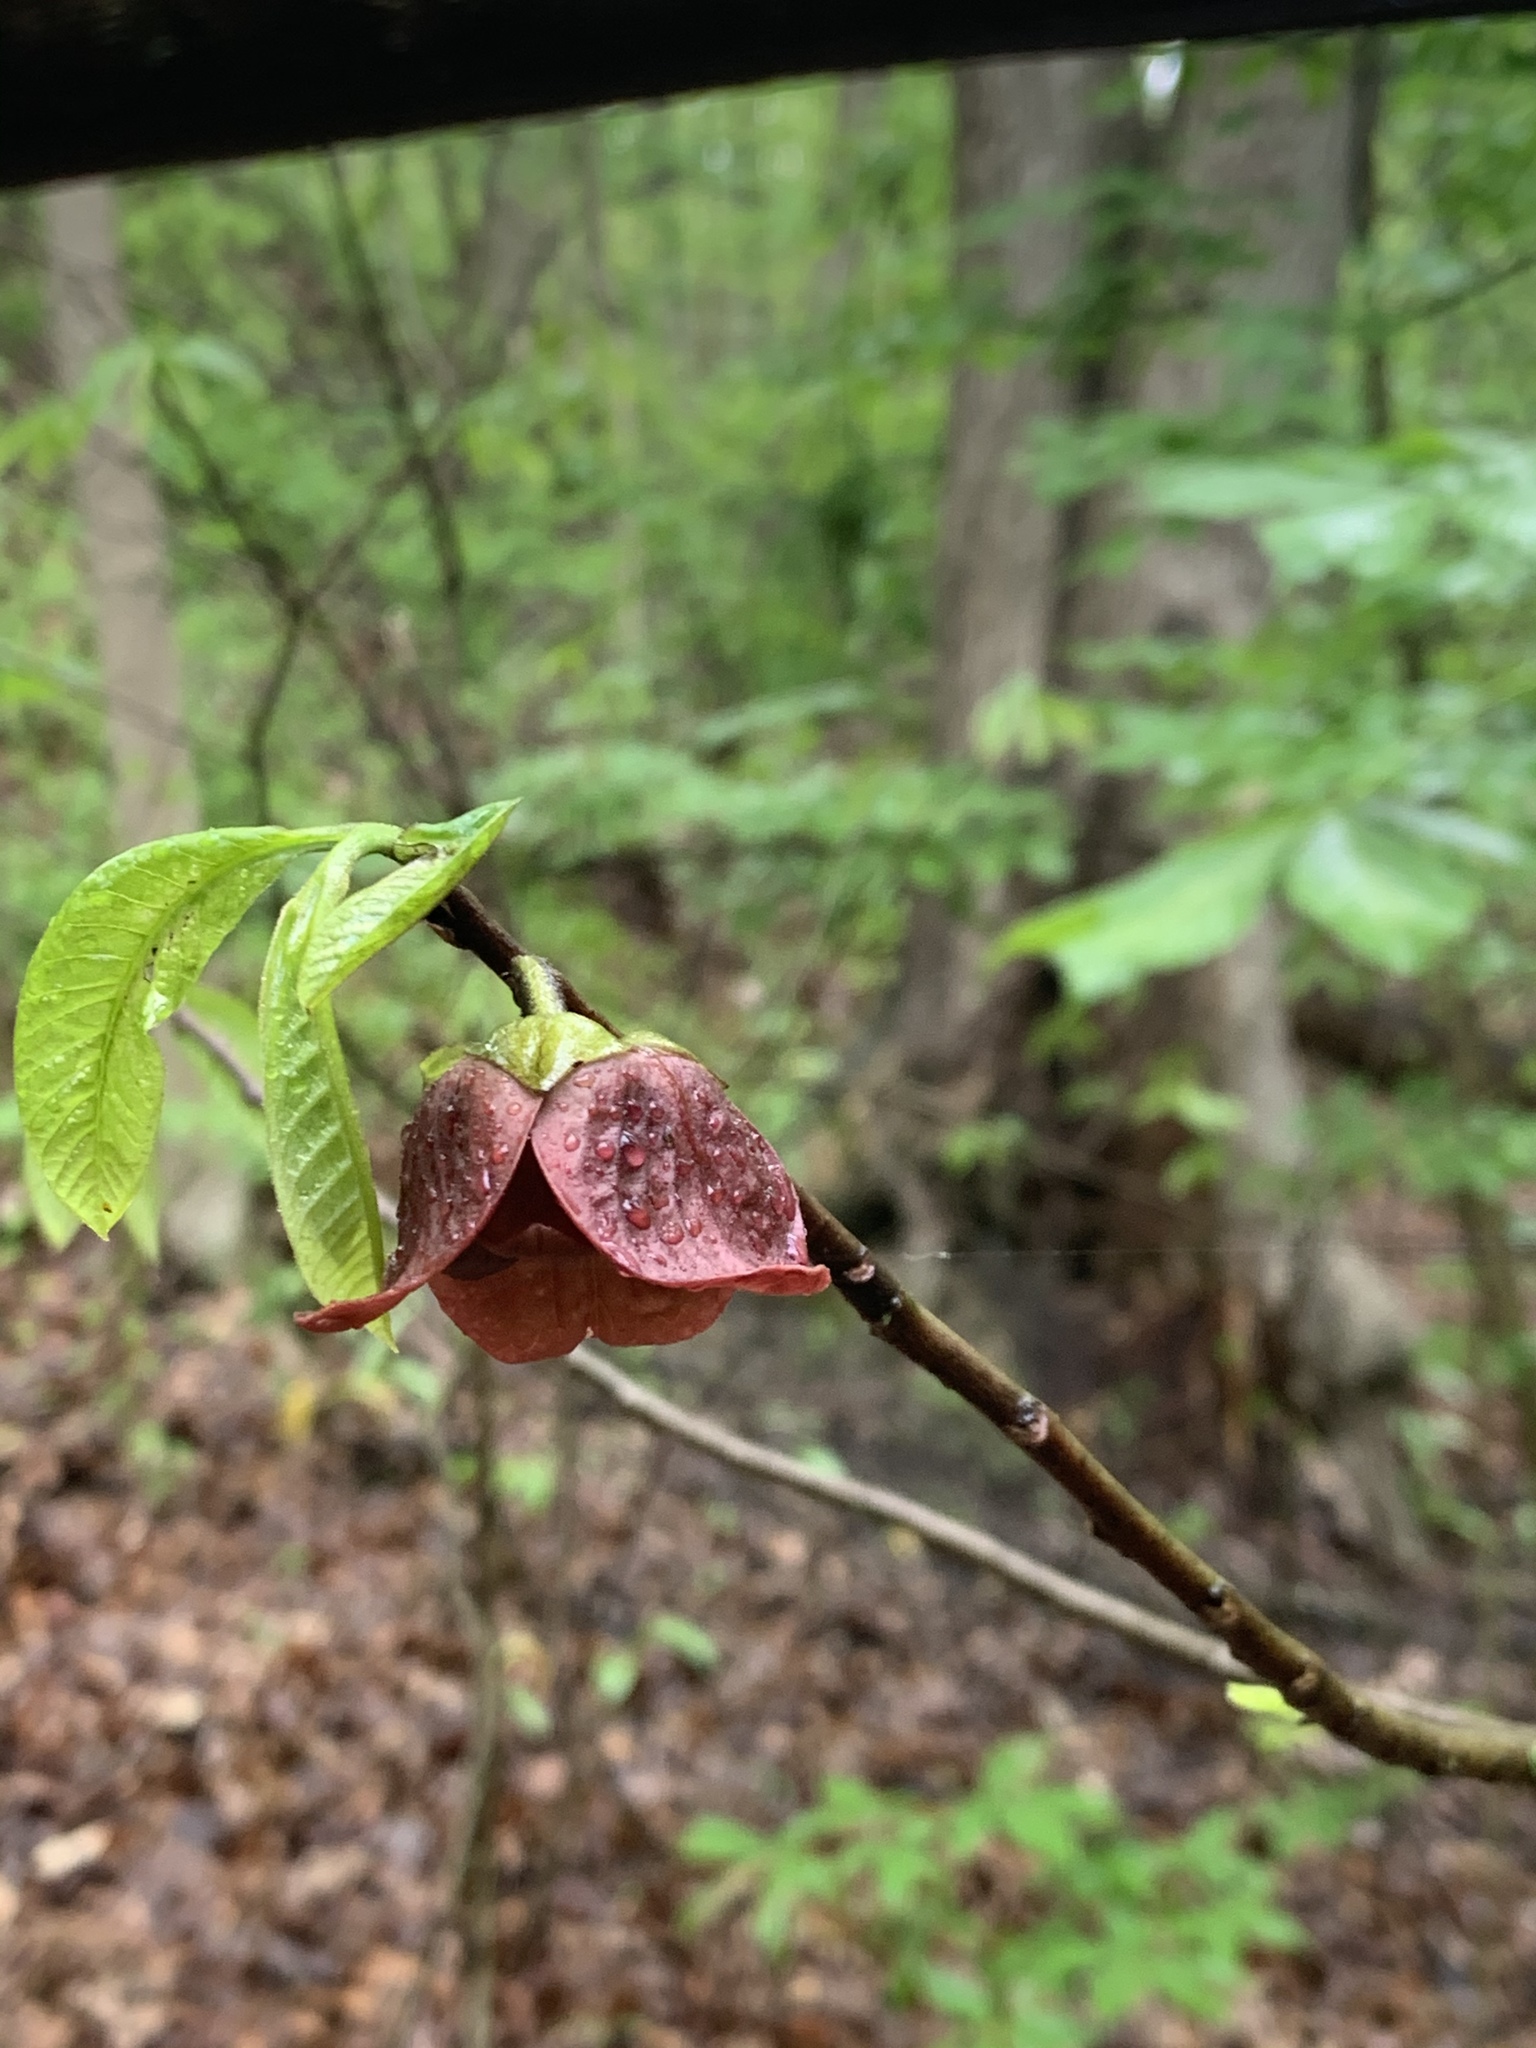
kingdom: Plantae
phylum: Tracheophyta
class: Magnoliopsida
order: Magnoliales
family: Annonaceae
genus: Asimina
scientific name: Asimina triloba
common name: Dog-banana
